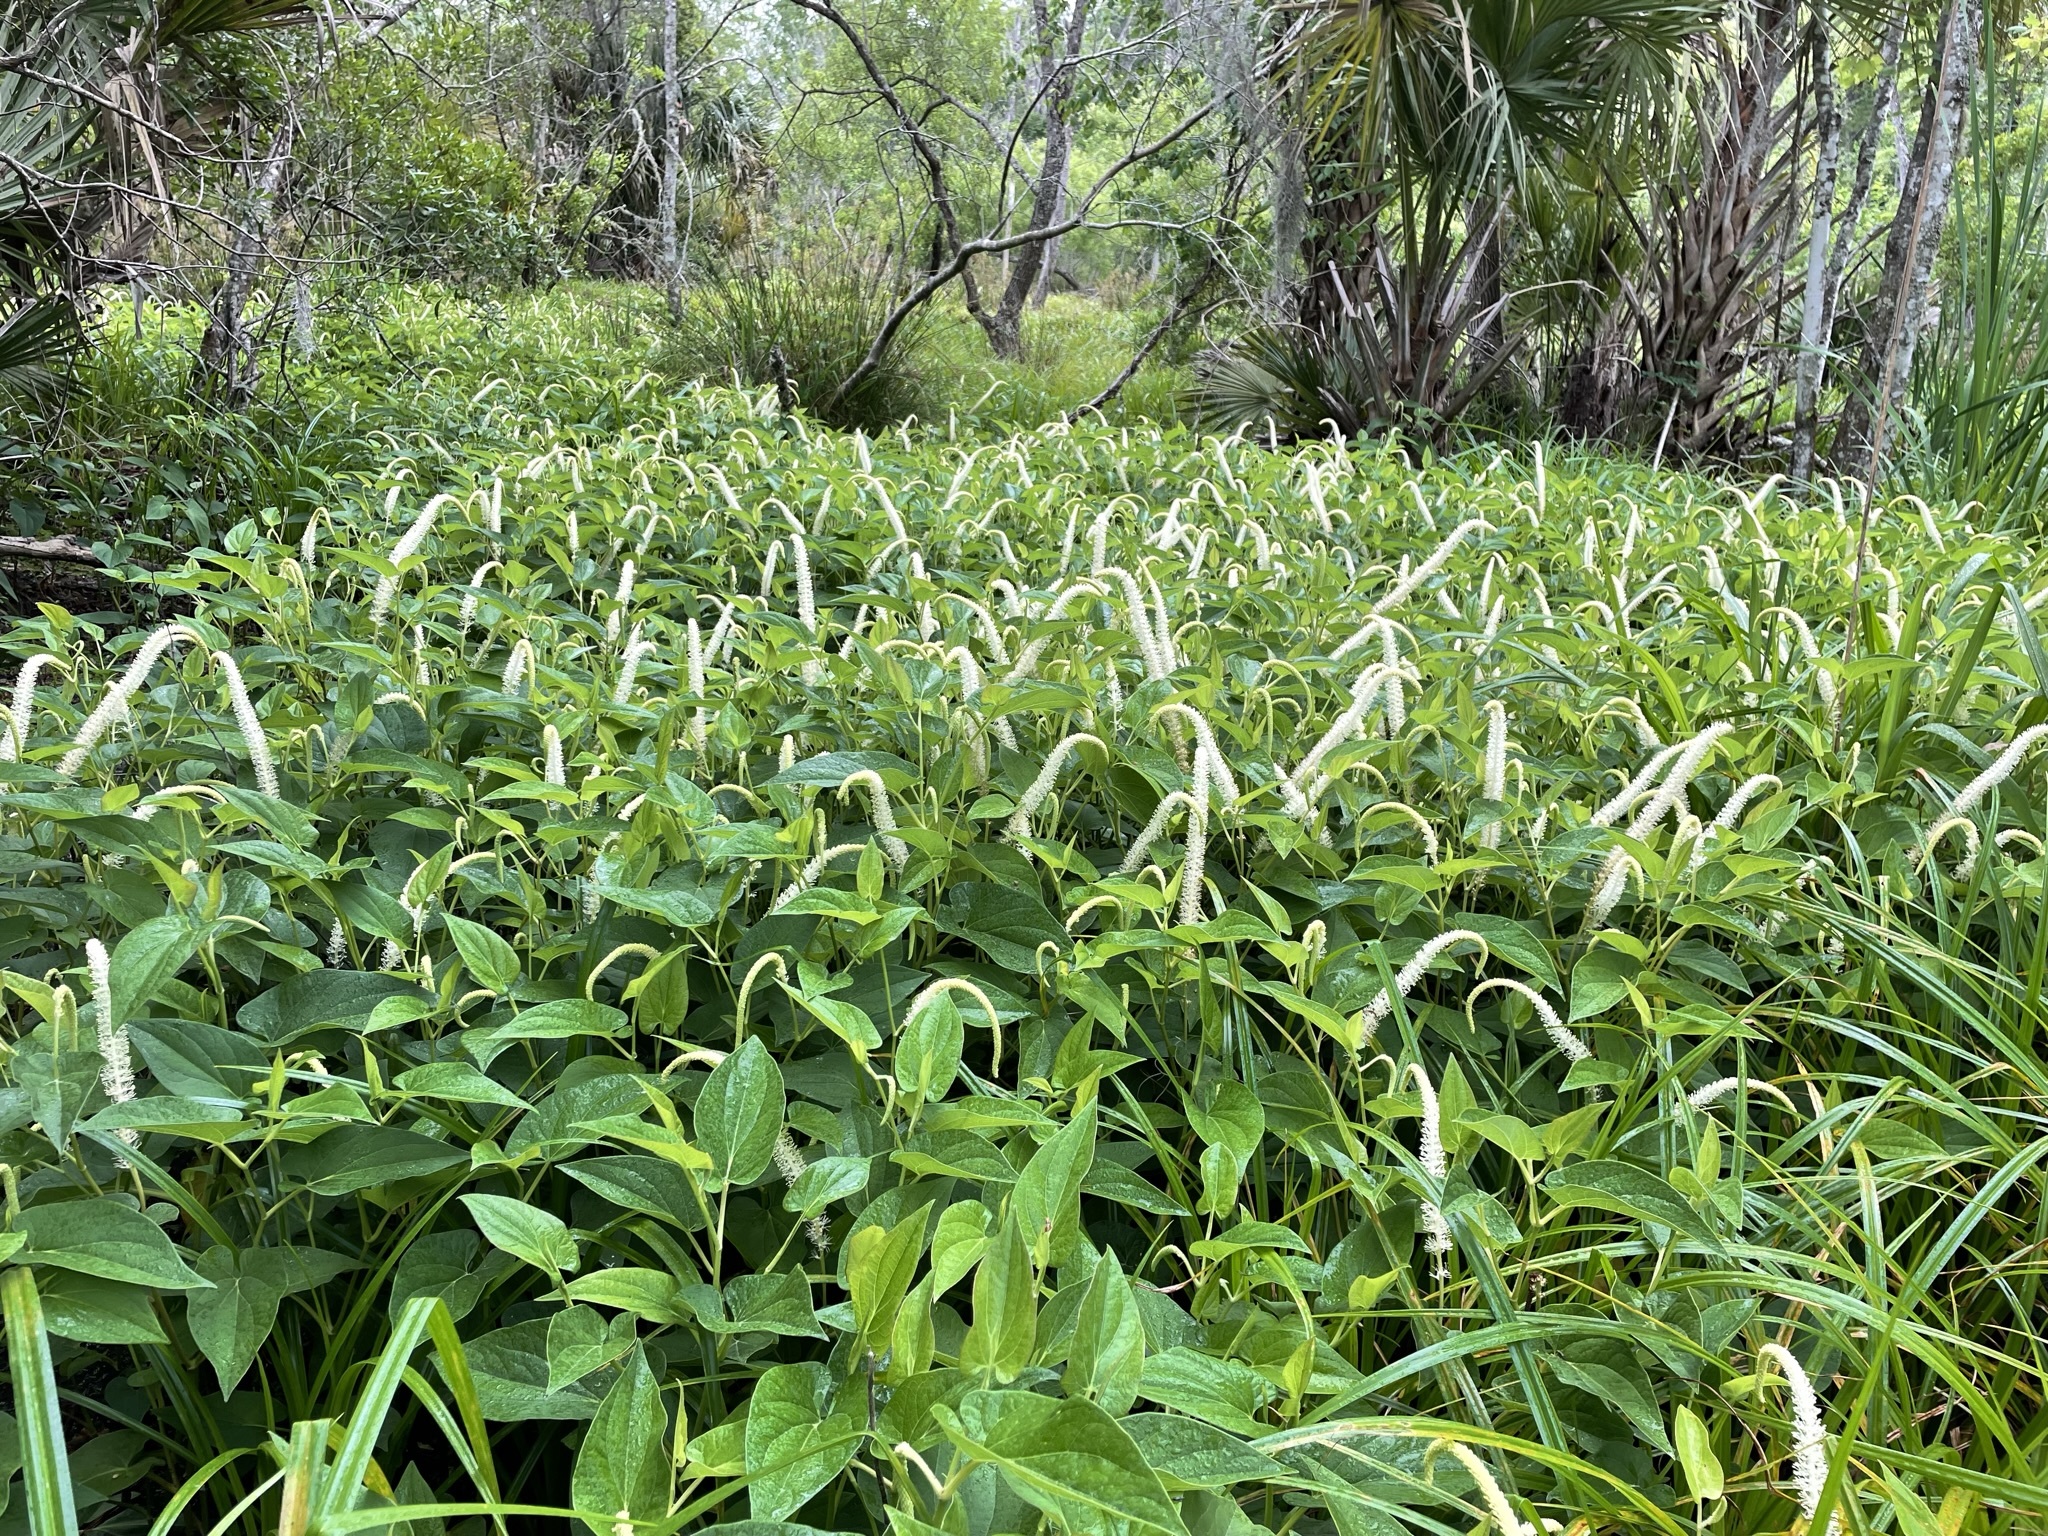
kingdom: Plantae
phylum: Tracheophyta
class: Magnoliopsida
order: Piperales
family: Saururaceae
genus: Saururus
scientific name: Saururus cernuus
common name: Lizard's-tail
